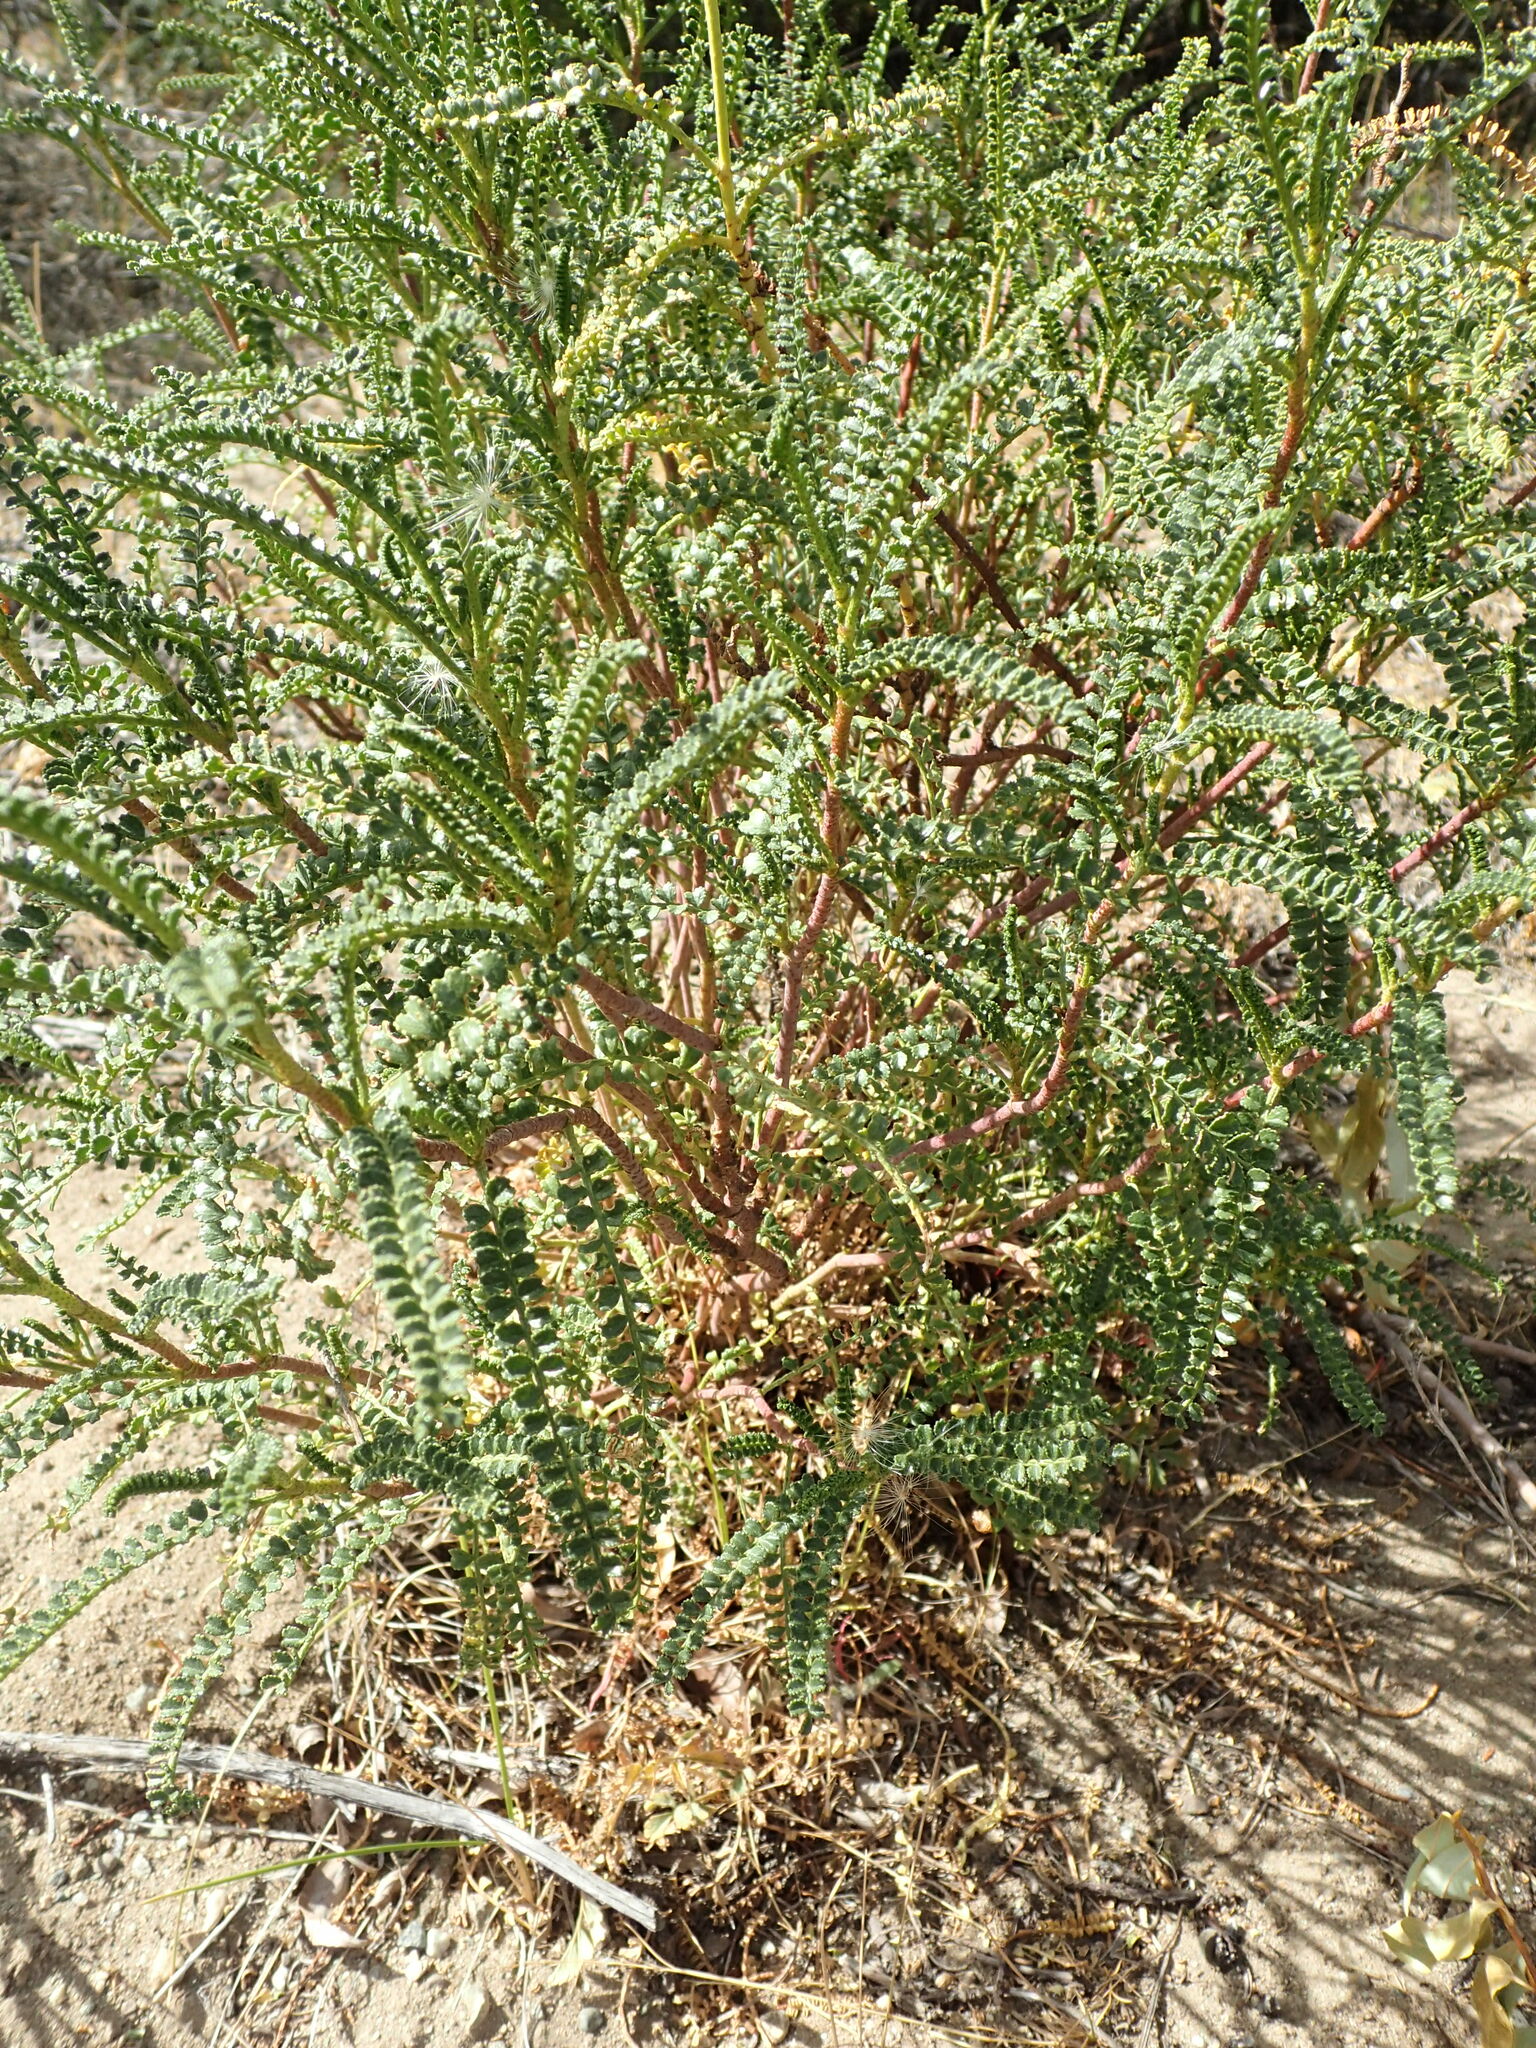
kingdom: Plantae
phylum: Tracheophyta
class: Magnoliopsida
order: Fabales
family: Fabaceae
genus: Adesmia
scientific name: Adesmia boronioides
